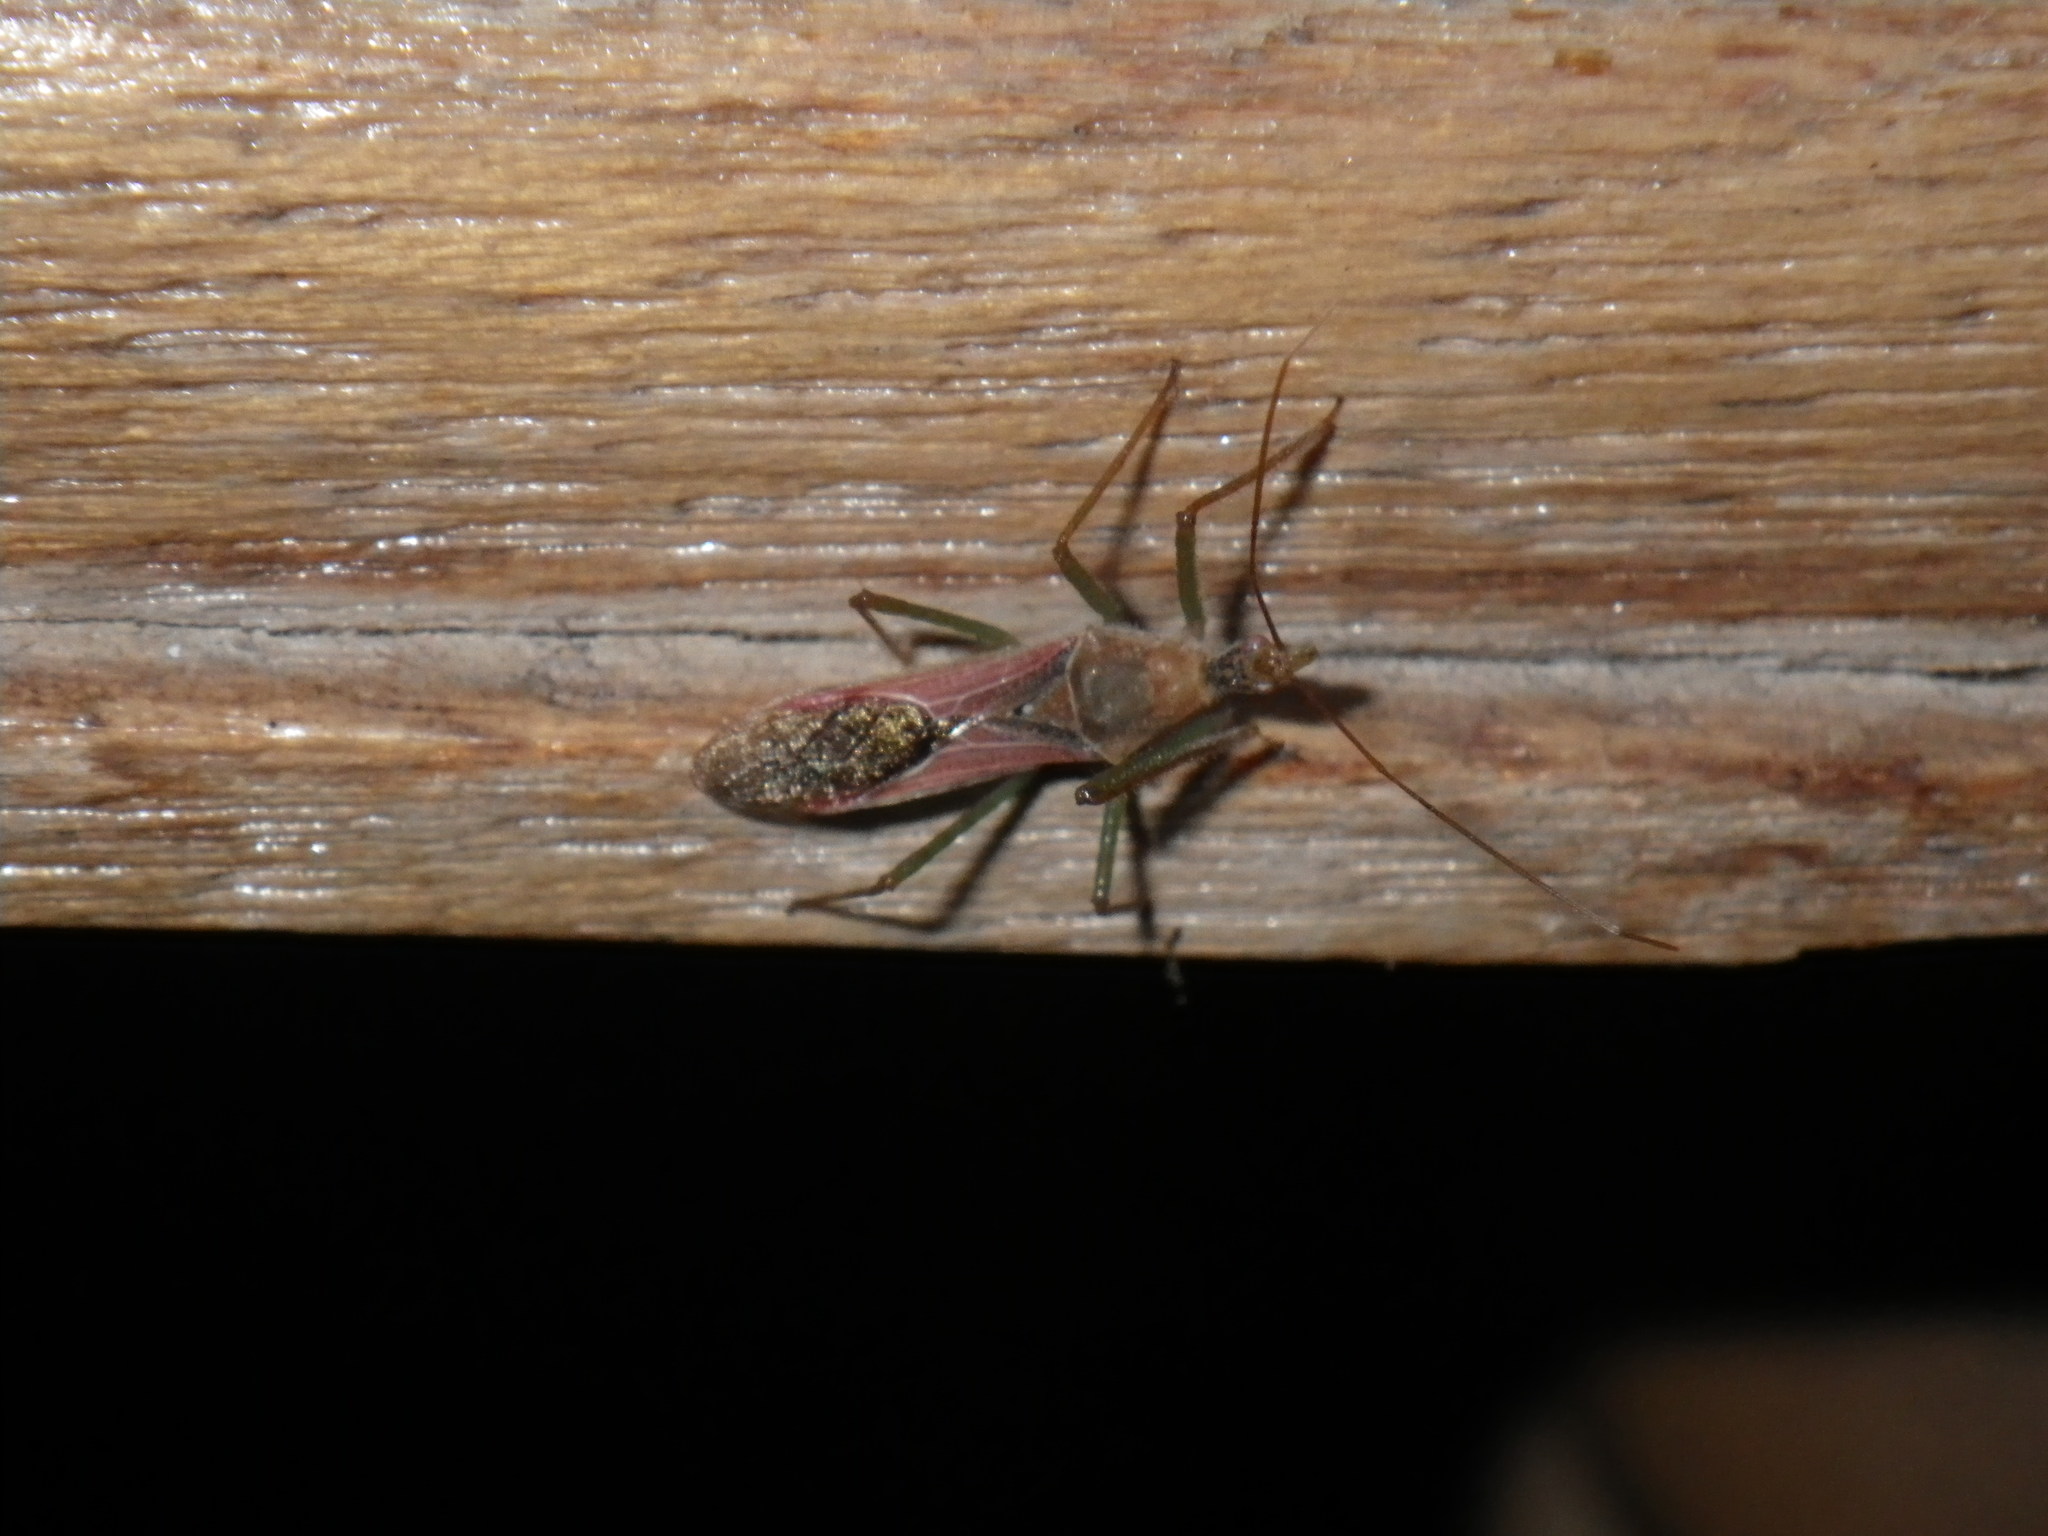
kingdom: Animalia
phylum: Arthropoda
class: Insecta
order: Hemiptera
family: Reduviidae
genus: Zelus
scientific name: Zelus renardii
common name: Assassin bug
